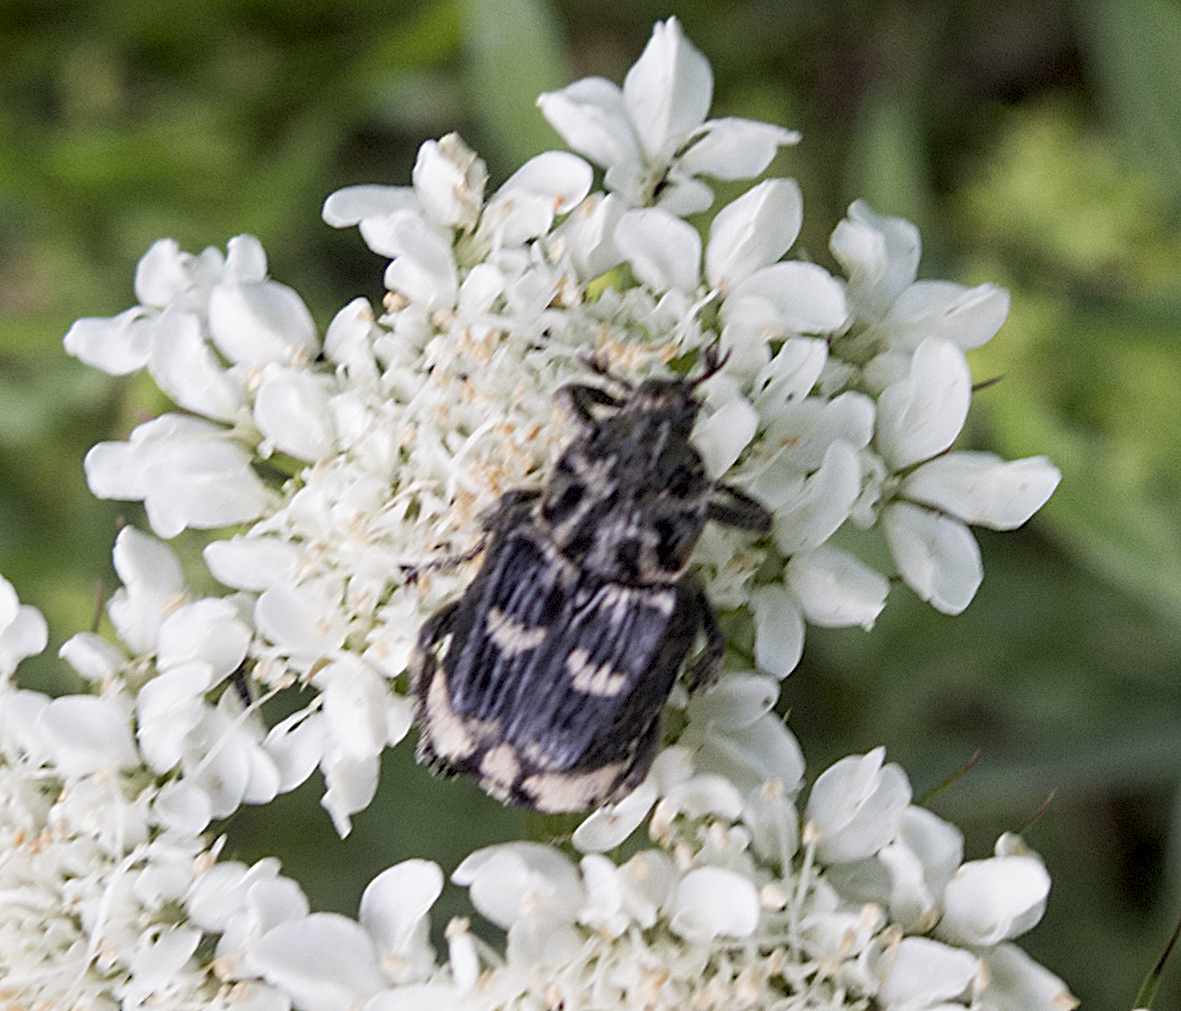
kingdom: Animalia
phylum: Arthropoda
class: Insecta
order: Coleoptera
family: Scarabaeidae
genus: Valgus
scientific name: Valgus hemipterus
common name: Bug flower chafer
